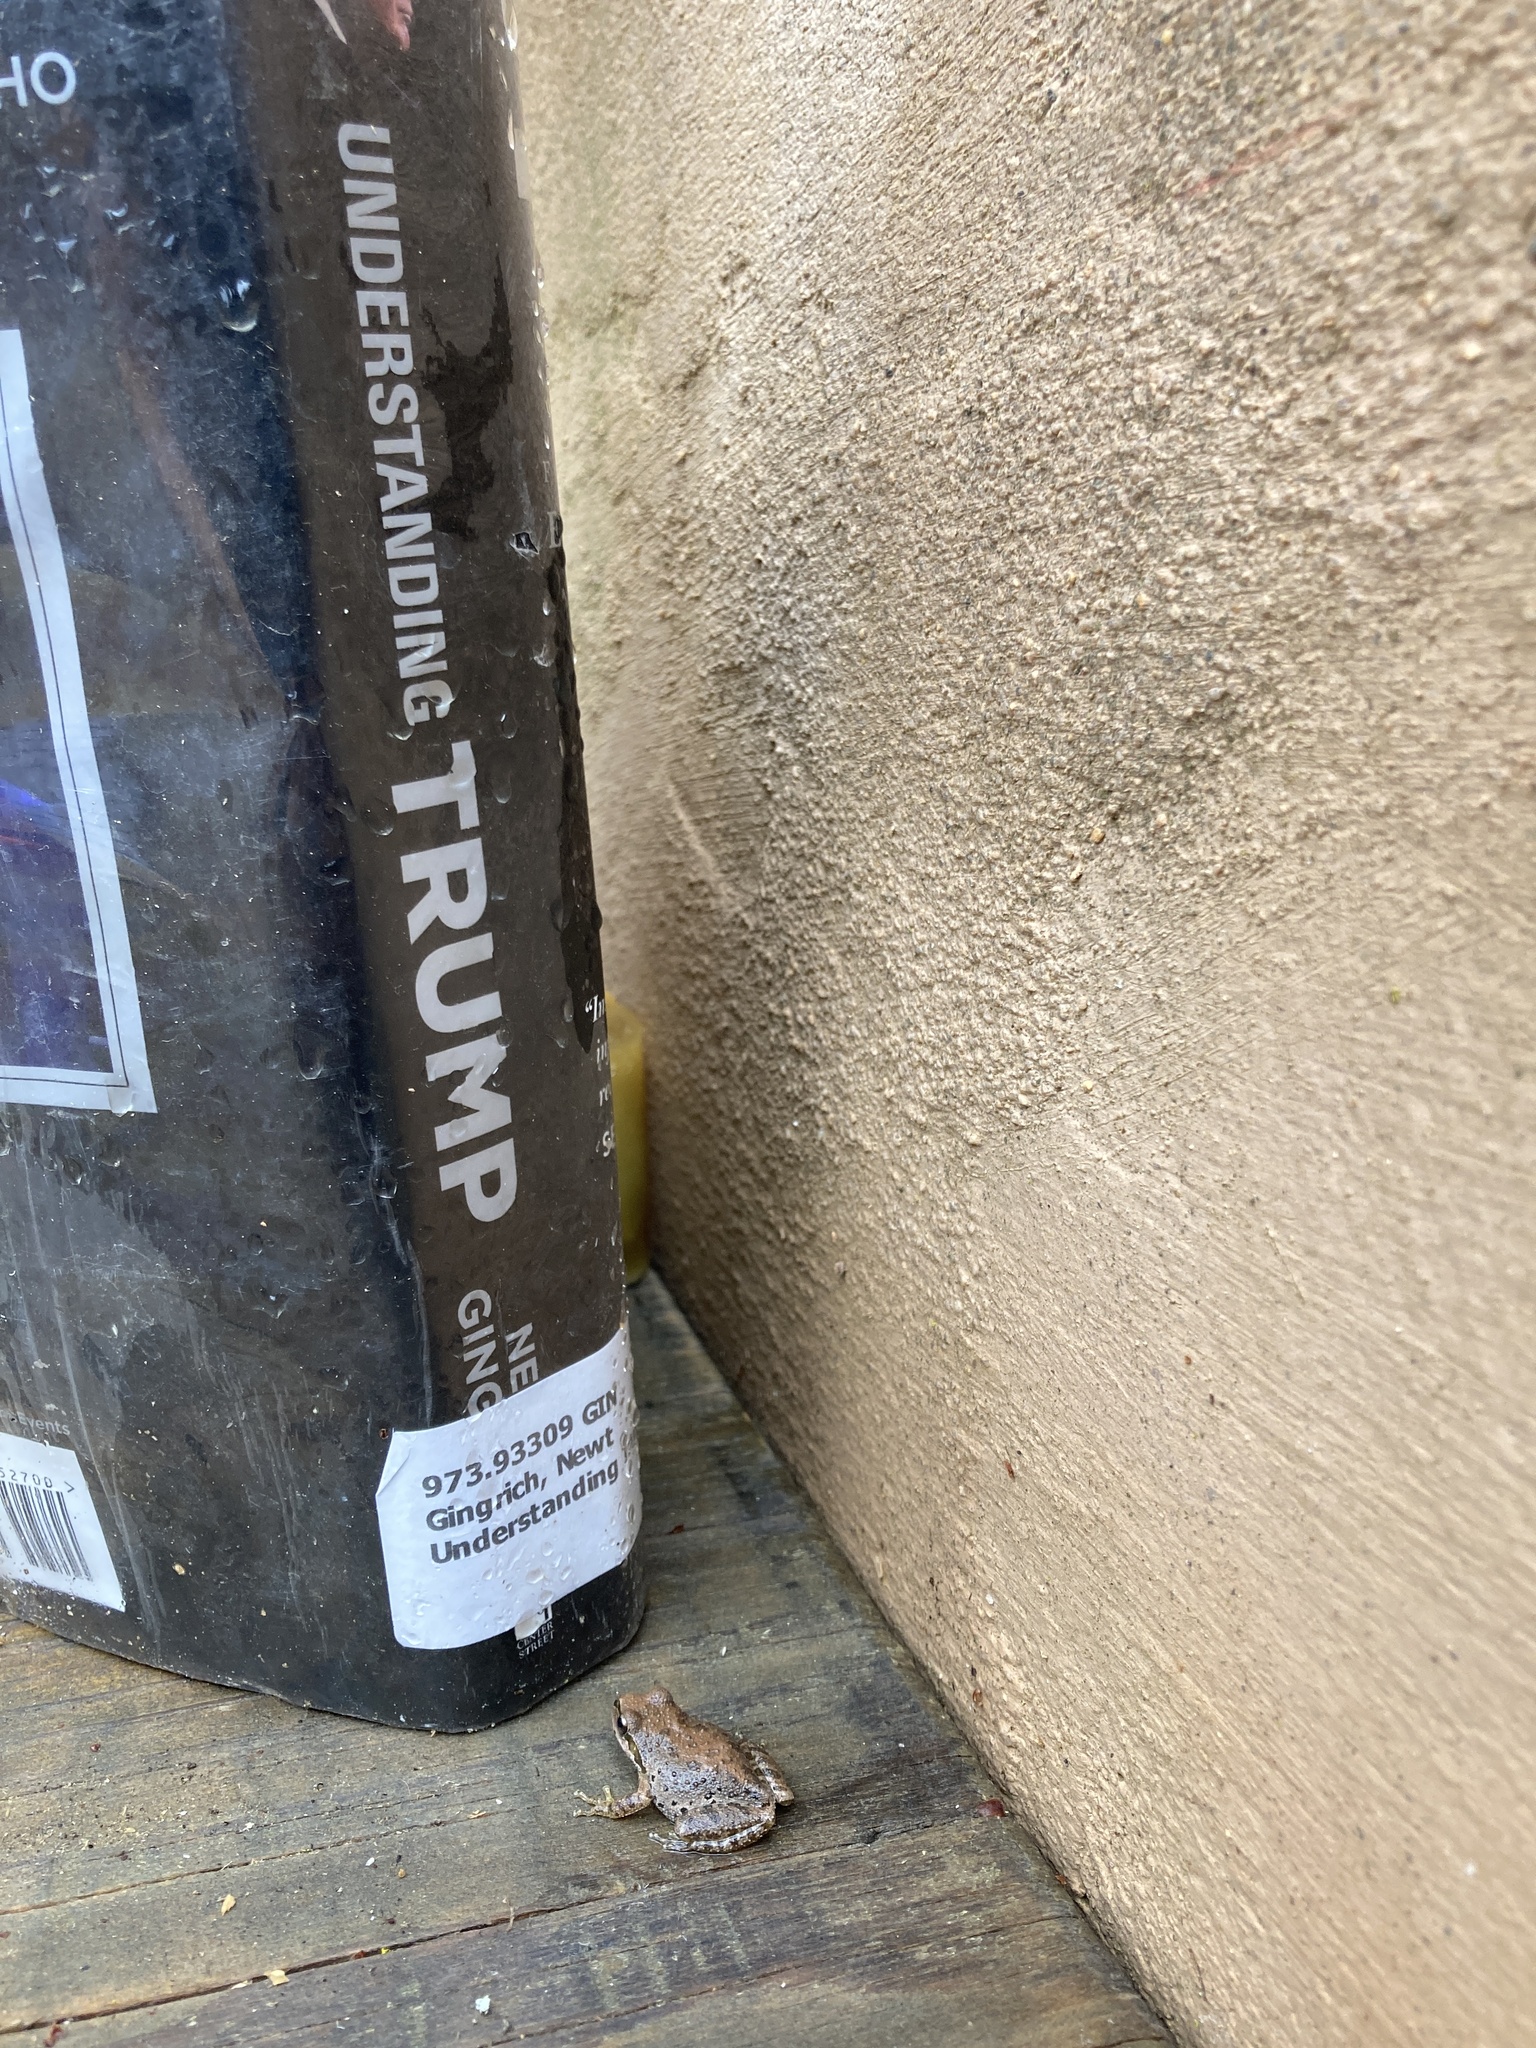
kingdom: Animalia
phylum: Chordata
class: Amphibia
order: Anura
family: Hylidae
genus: Pseudacris
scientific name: Pseudacris regilla
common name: Pacific chorus frog
